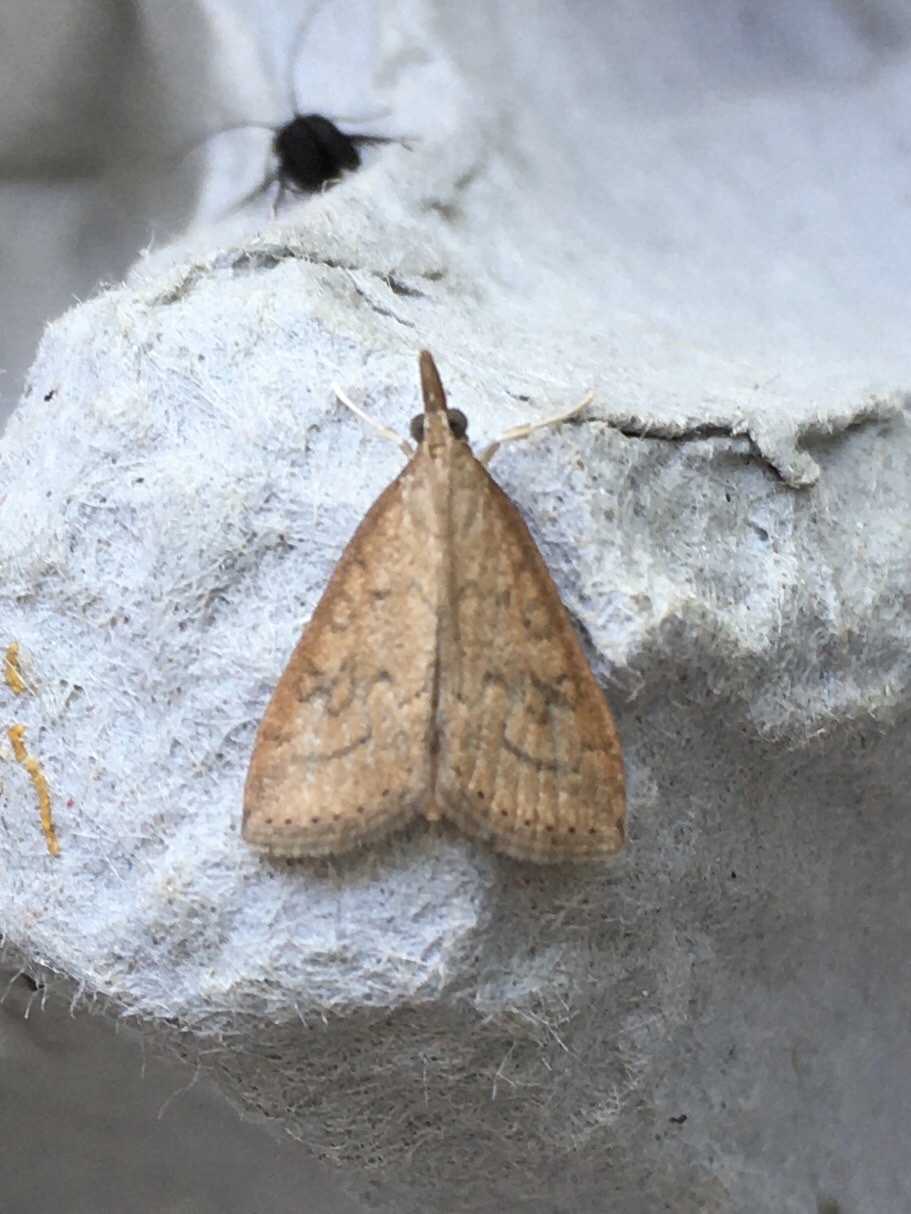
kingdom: Animalia
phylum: Arthropoda
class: Insecta
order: Lepidoptera
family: Crambidae
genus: Udea
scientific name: Udea rubigalis
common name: Celery leaftier moth
